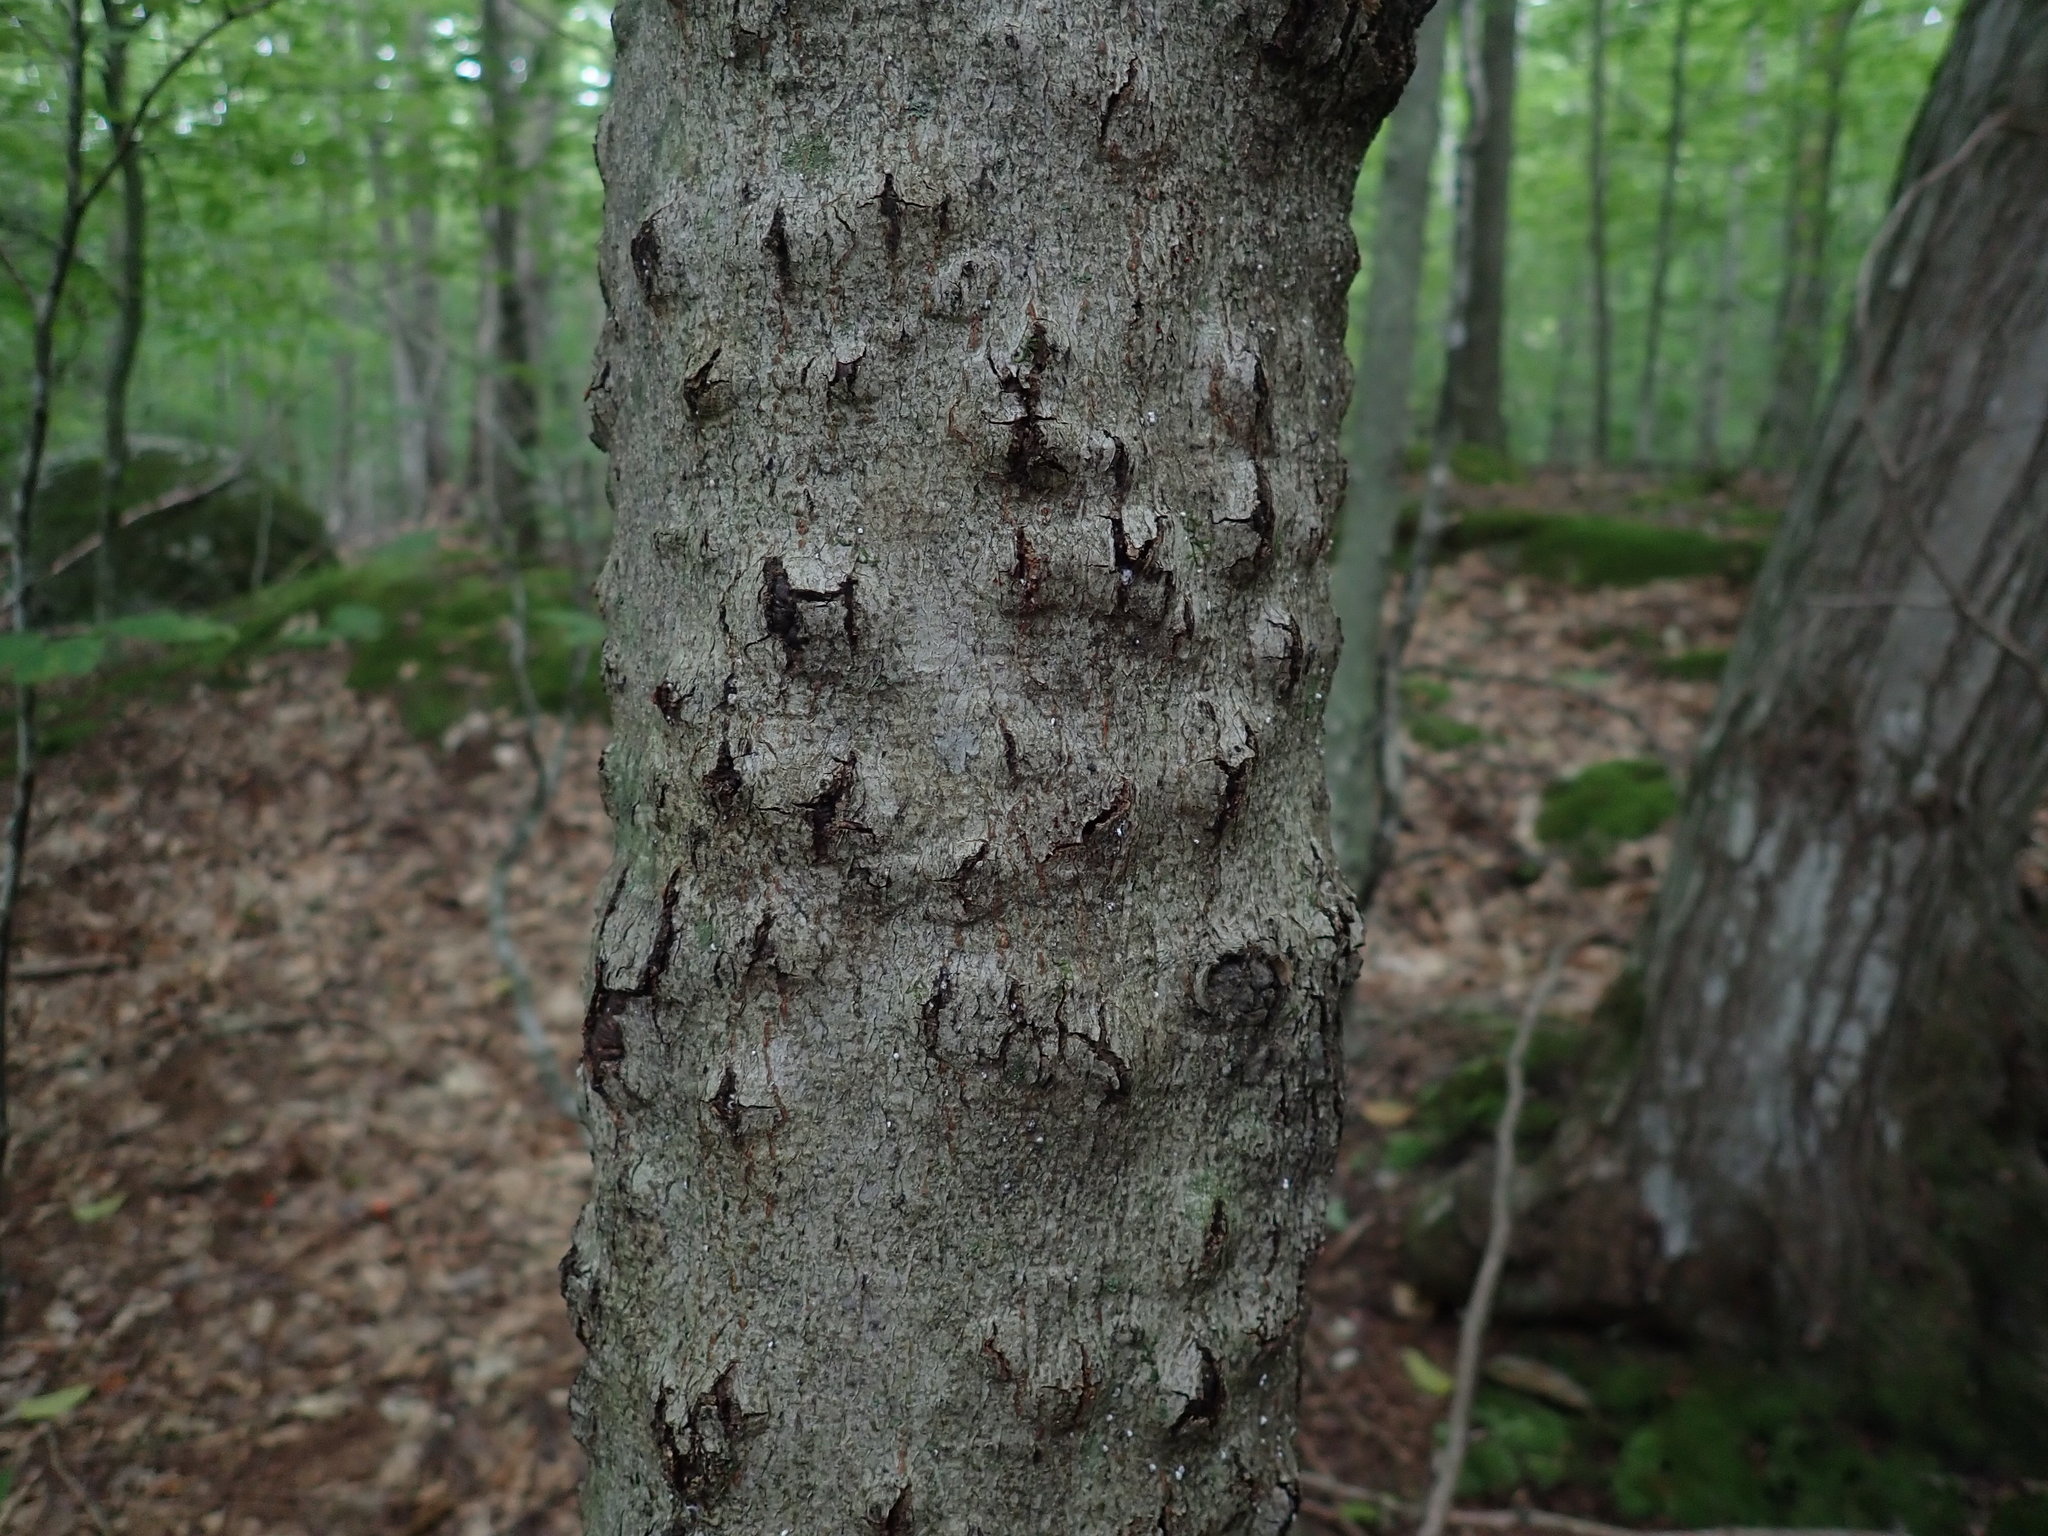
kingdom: Fungi
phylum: Ascomycota
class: Sordariomycetes
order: Hypocreales
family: Nectriaceae
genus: Neonectria
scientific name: Neonectria faginata
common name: Beech bark canker
